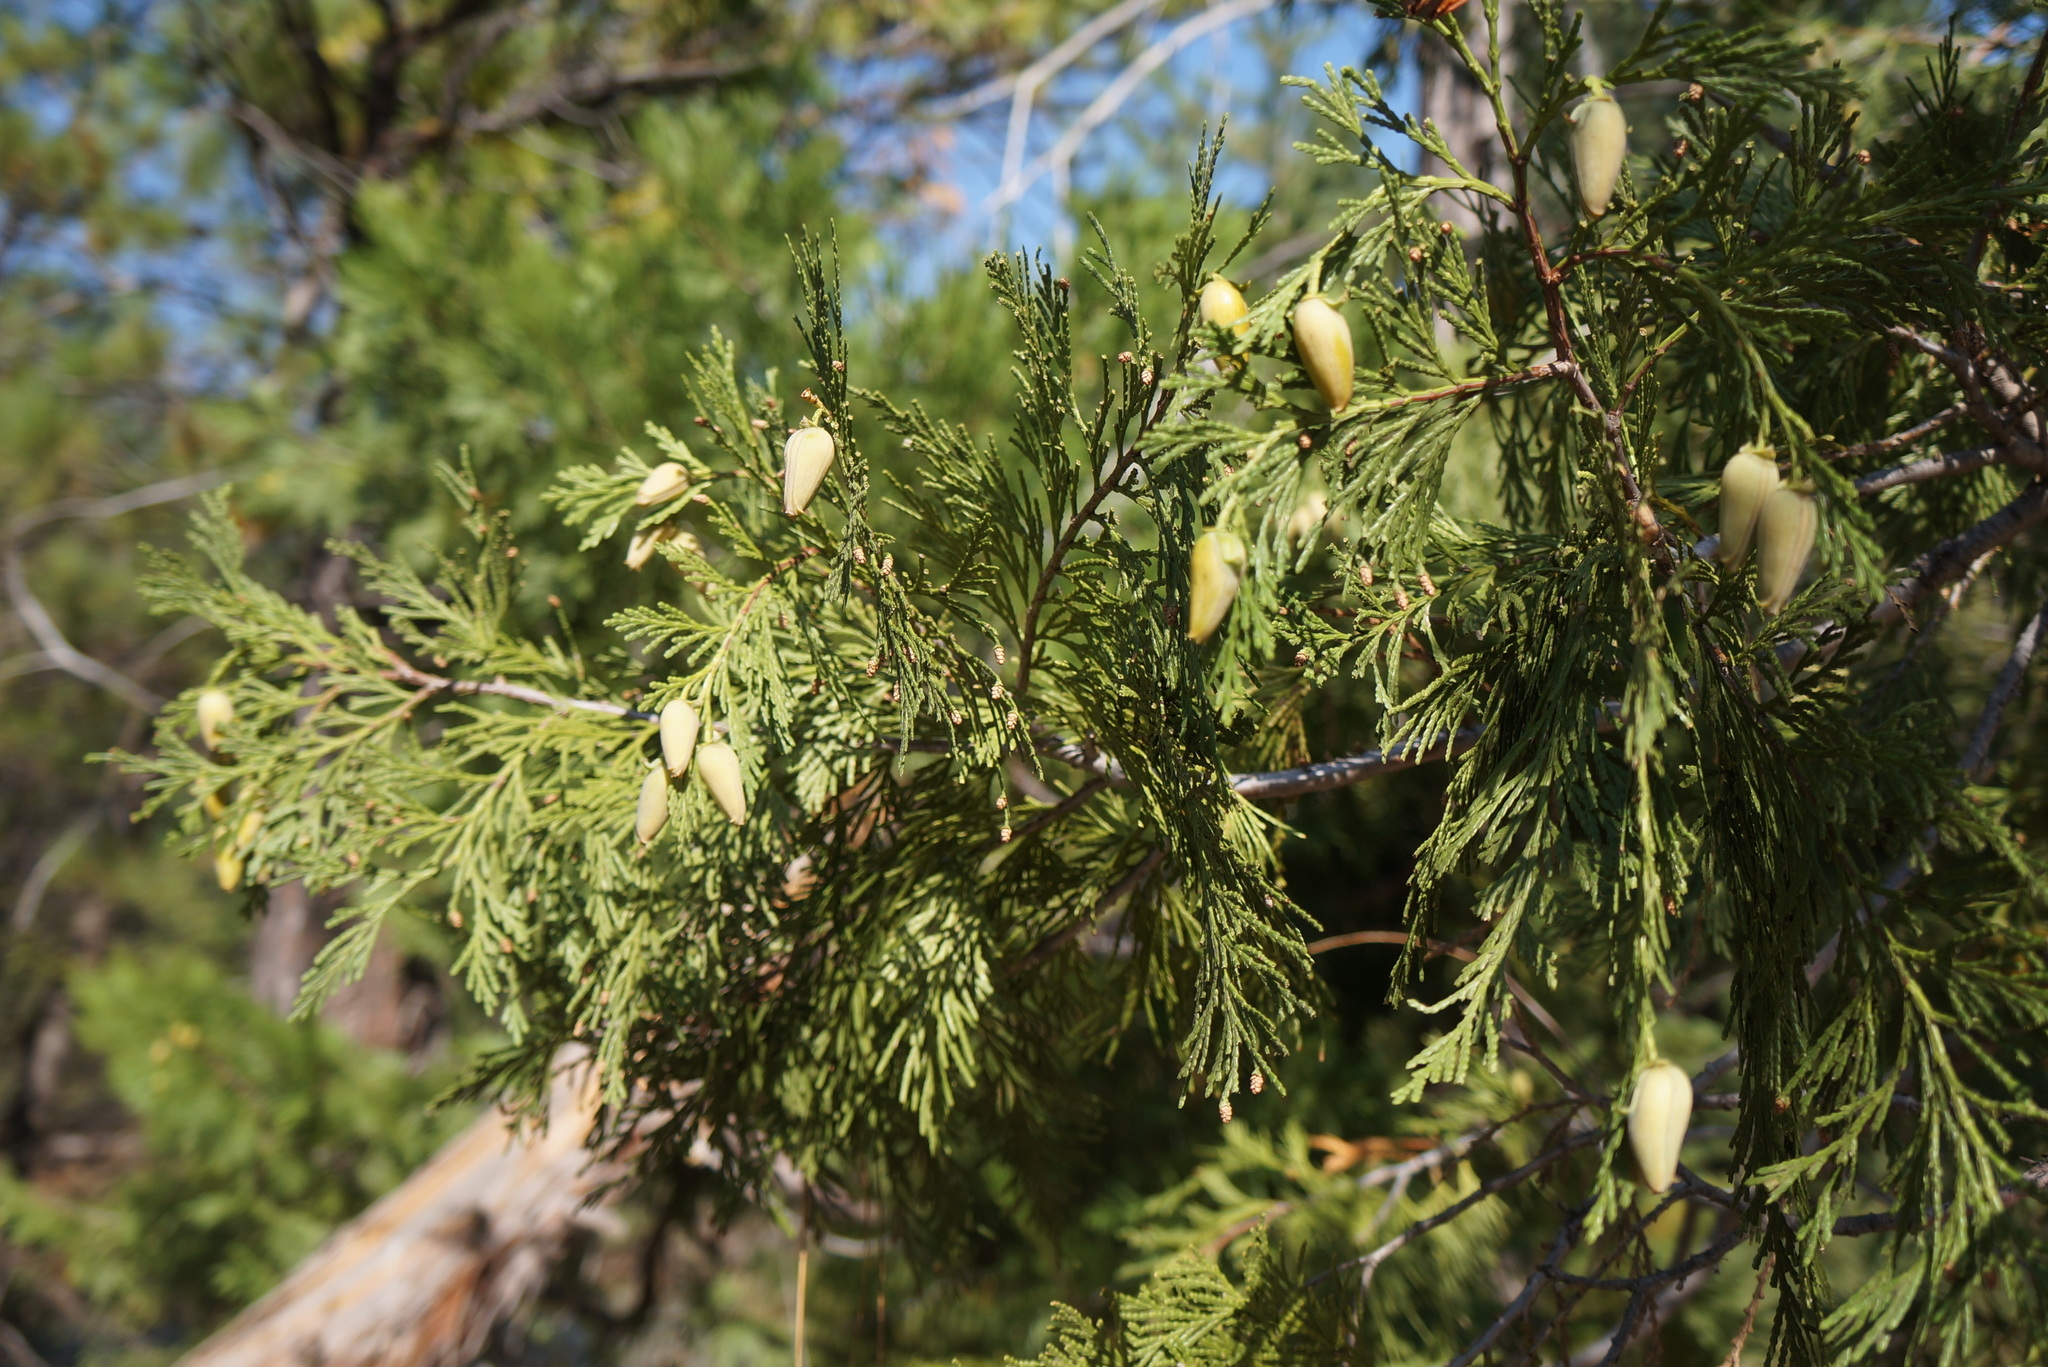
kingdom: Plantae
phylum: Tracheophyta
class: Pinopsida
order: Pinales
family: Cupressaceae
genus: Calocedrus
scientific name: Calocedrus decurrens
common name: Californian incense-cedar
